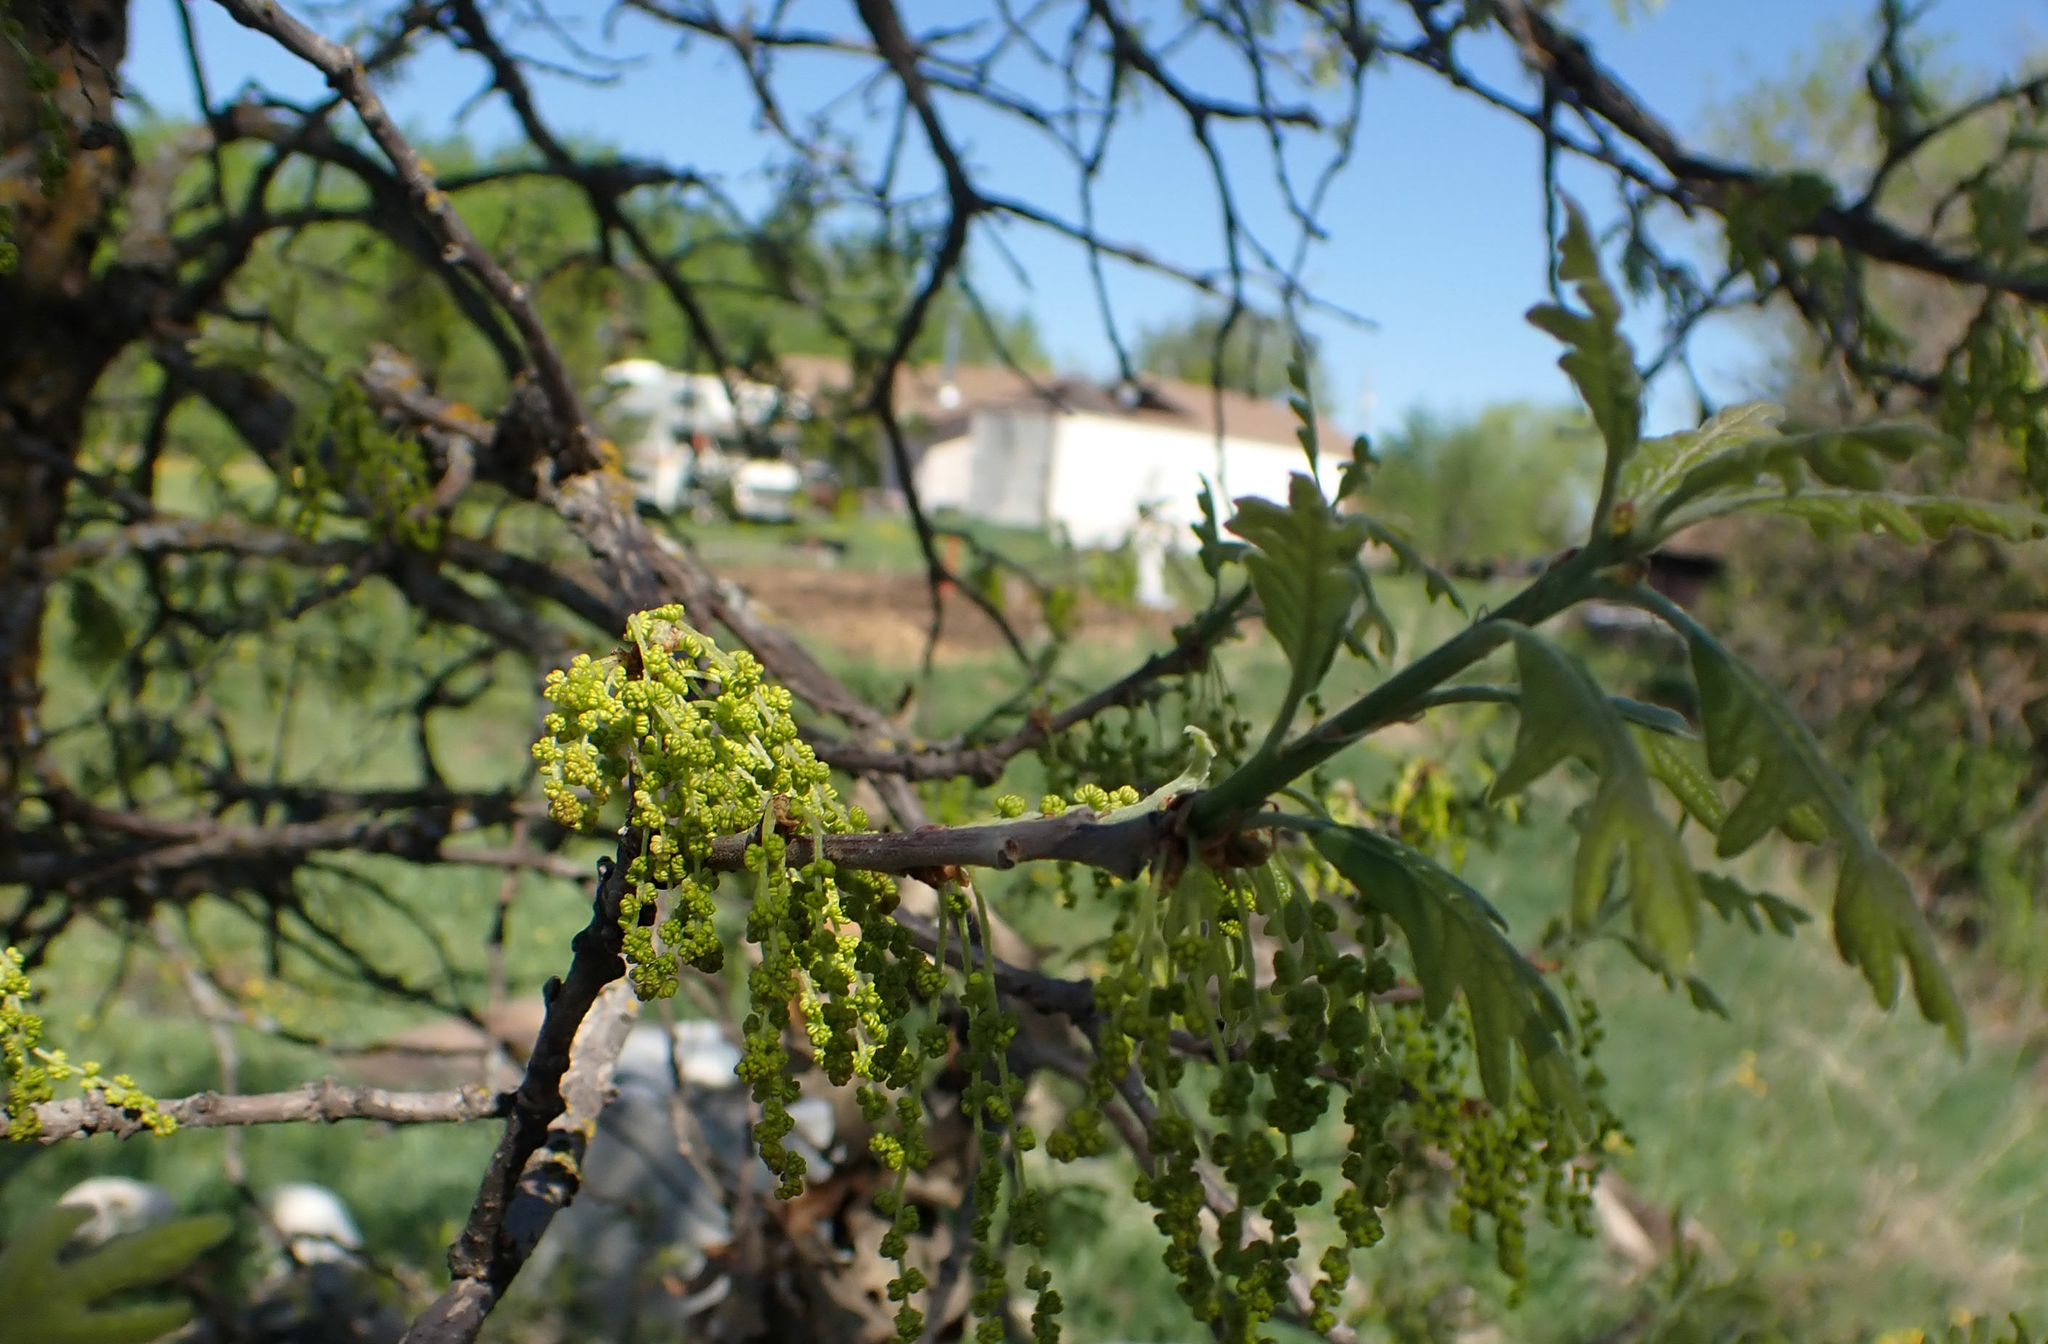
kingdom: Plantae
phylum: Tracheophyta
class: Magnoliopsida
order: Fagales
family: Fagaceae
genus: Quercus
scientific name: Quercus macrocarpa
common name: Bur oak
